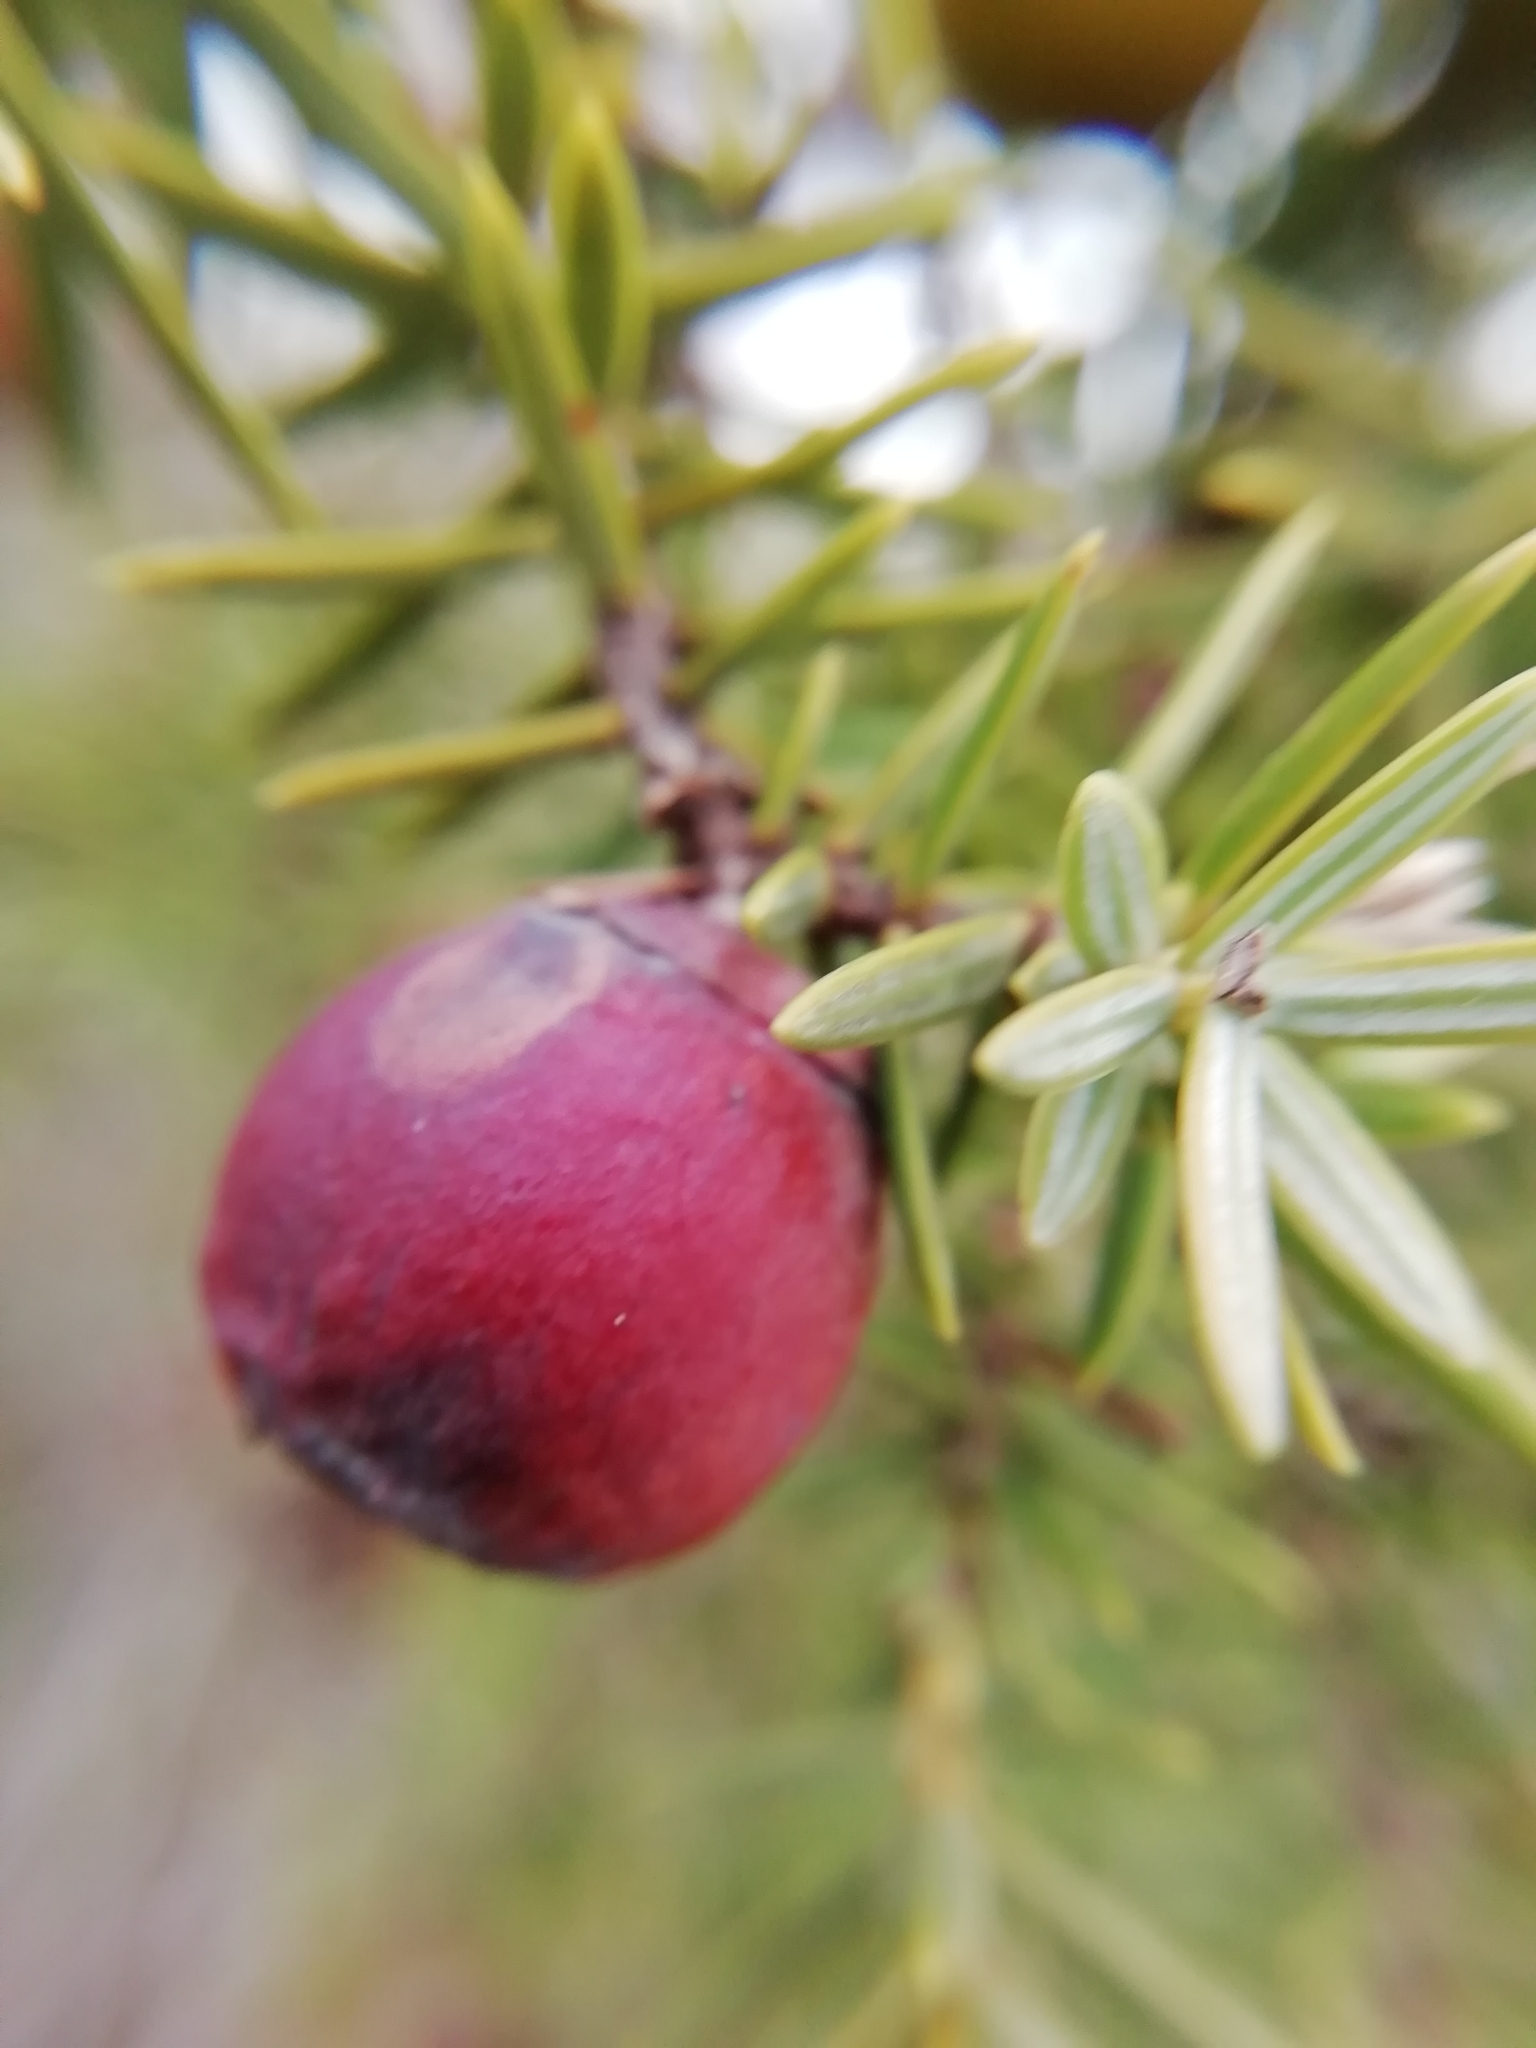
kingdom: Plantae
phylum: Tracheophyta
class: Pinopsida
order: Pinales
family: Cupressaceae
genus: Juniperus
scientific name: Juniperus oxycedrus
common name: Prickly juniper
